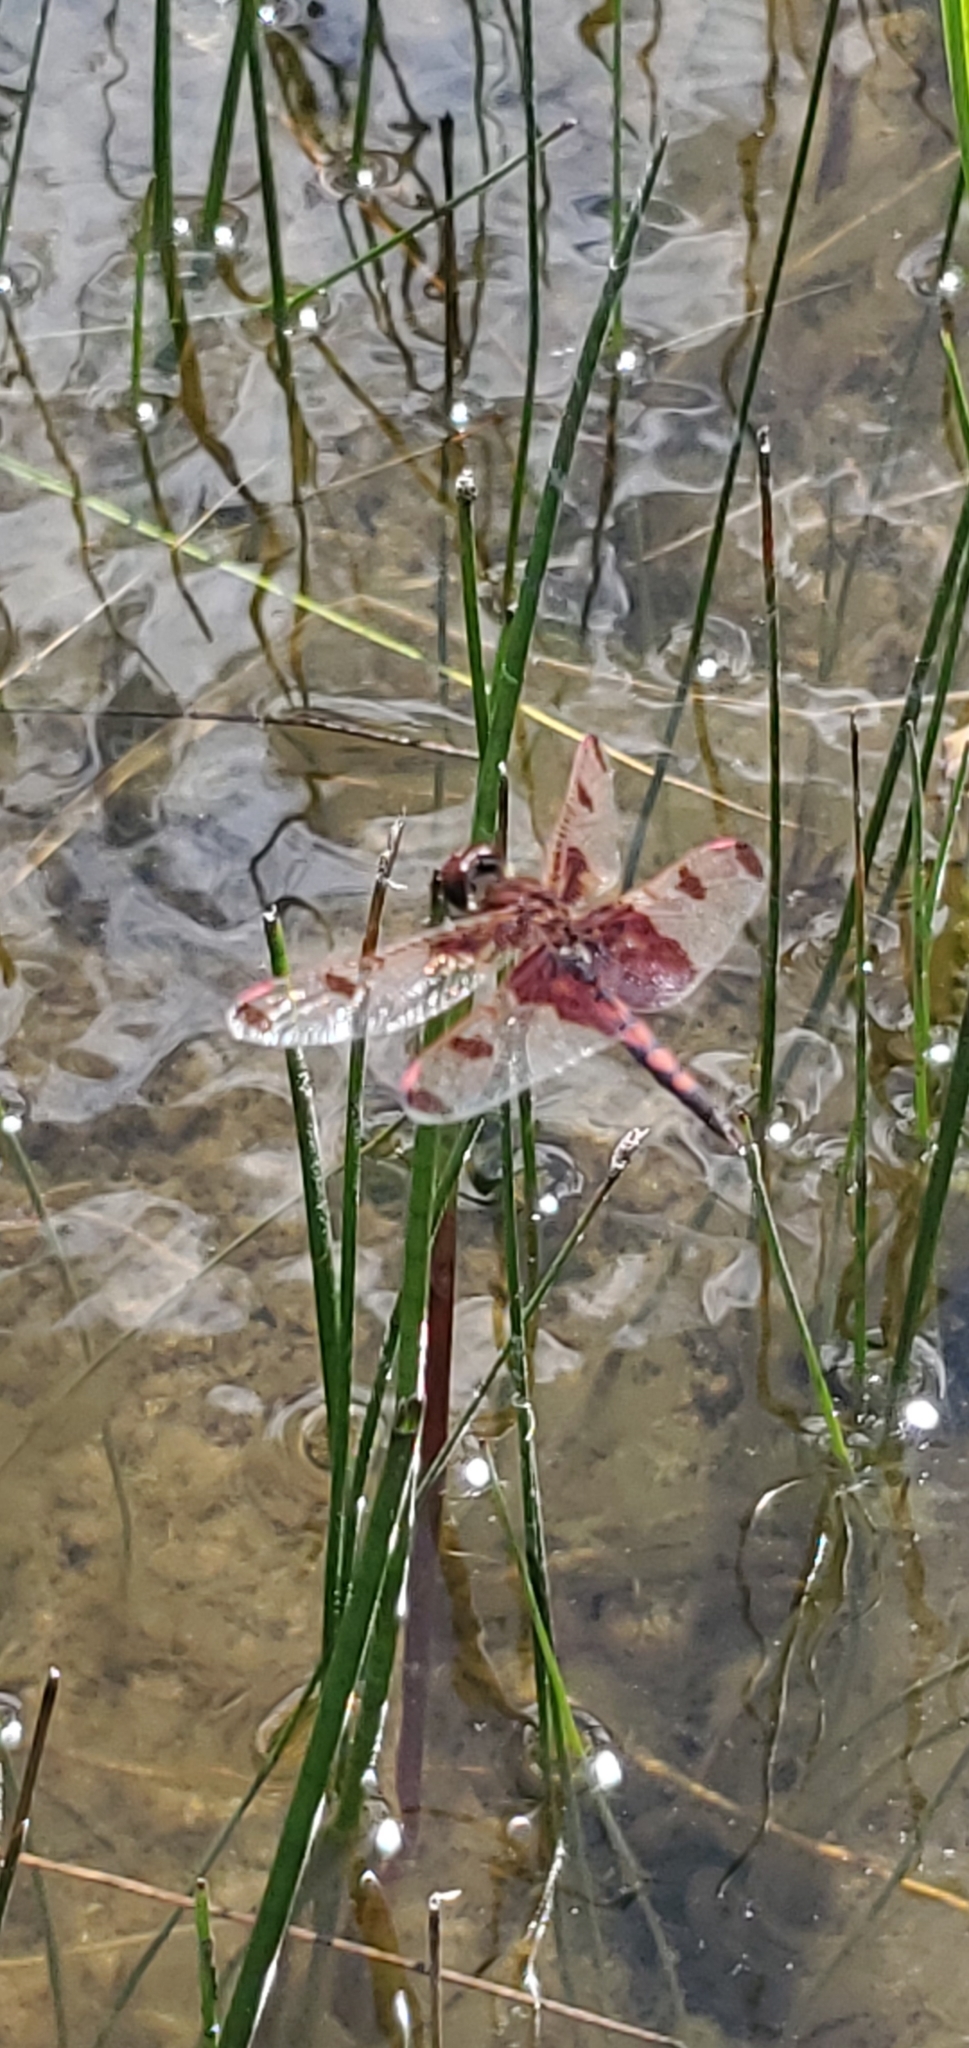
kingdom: Animalia
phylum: Arthropoda
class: Insecta
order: Odonata
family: Libellulidae
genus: Celithemis
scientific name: Celithemis elisa
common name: Calico pennant
